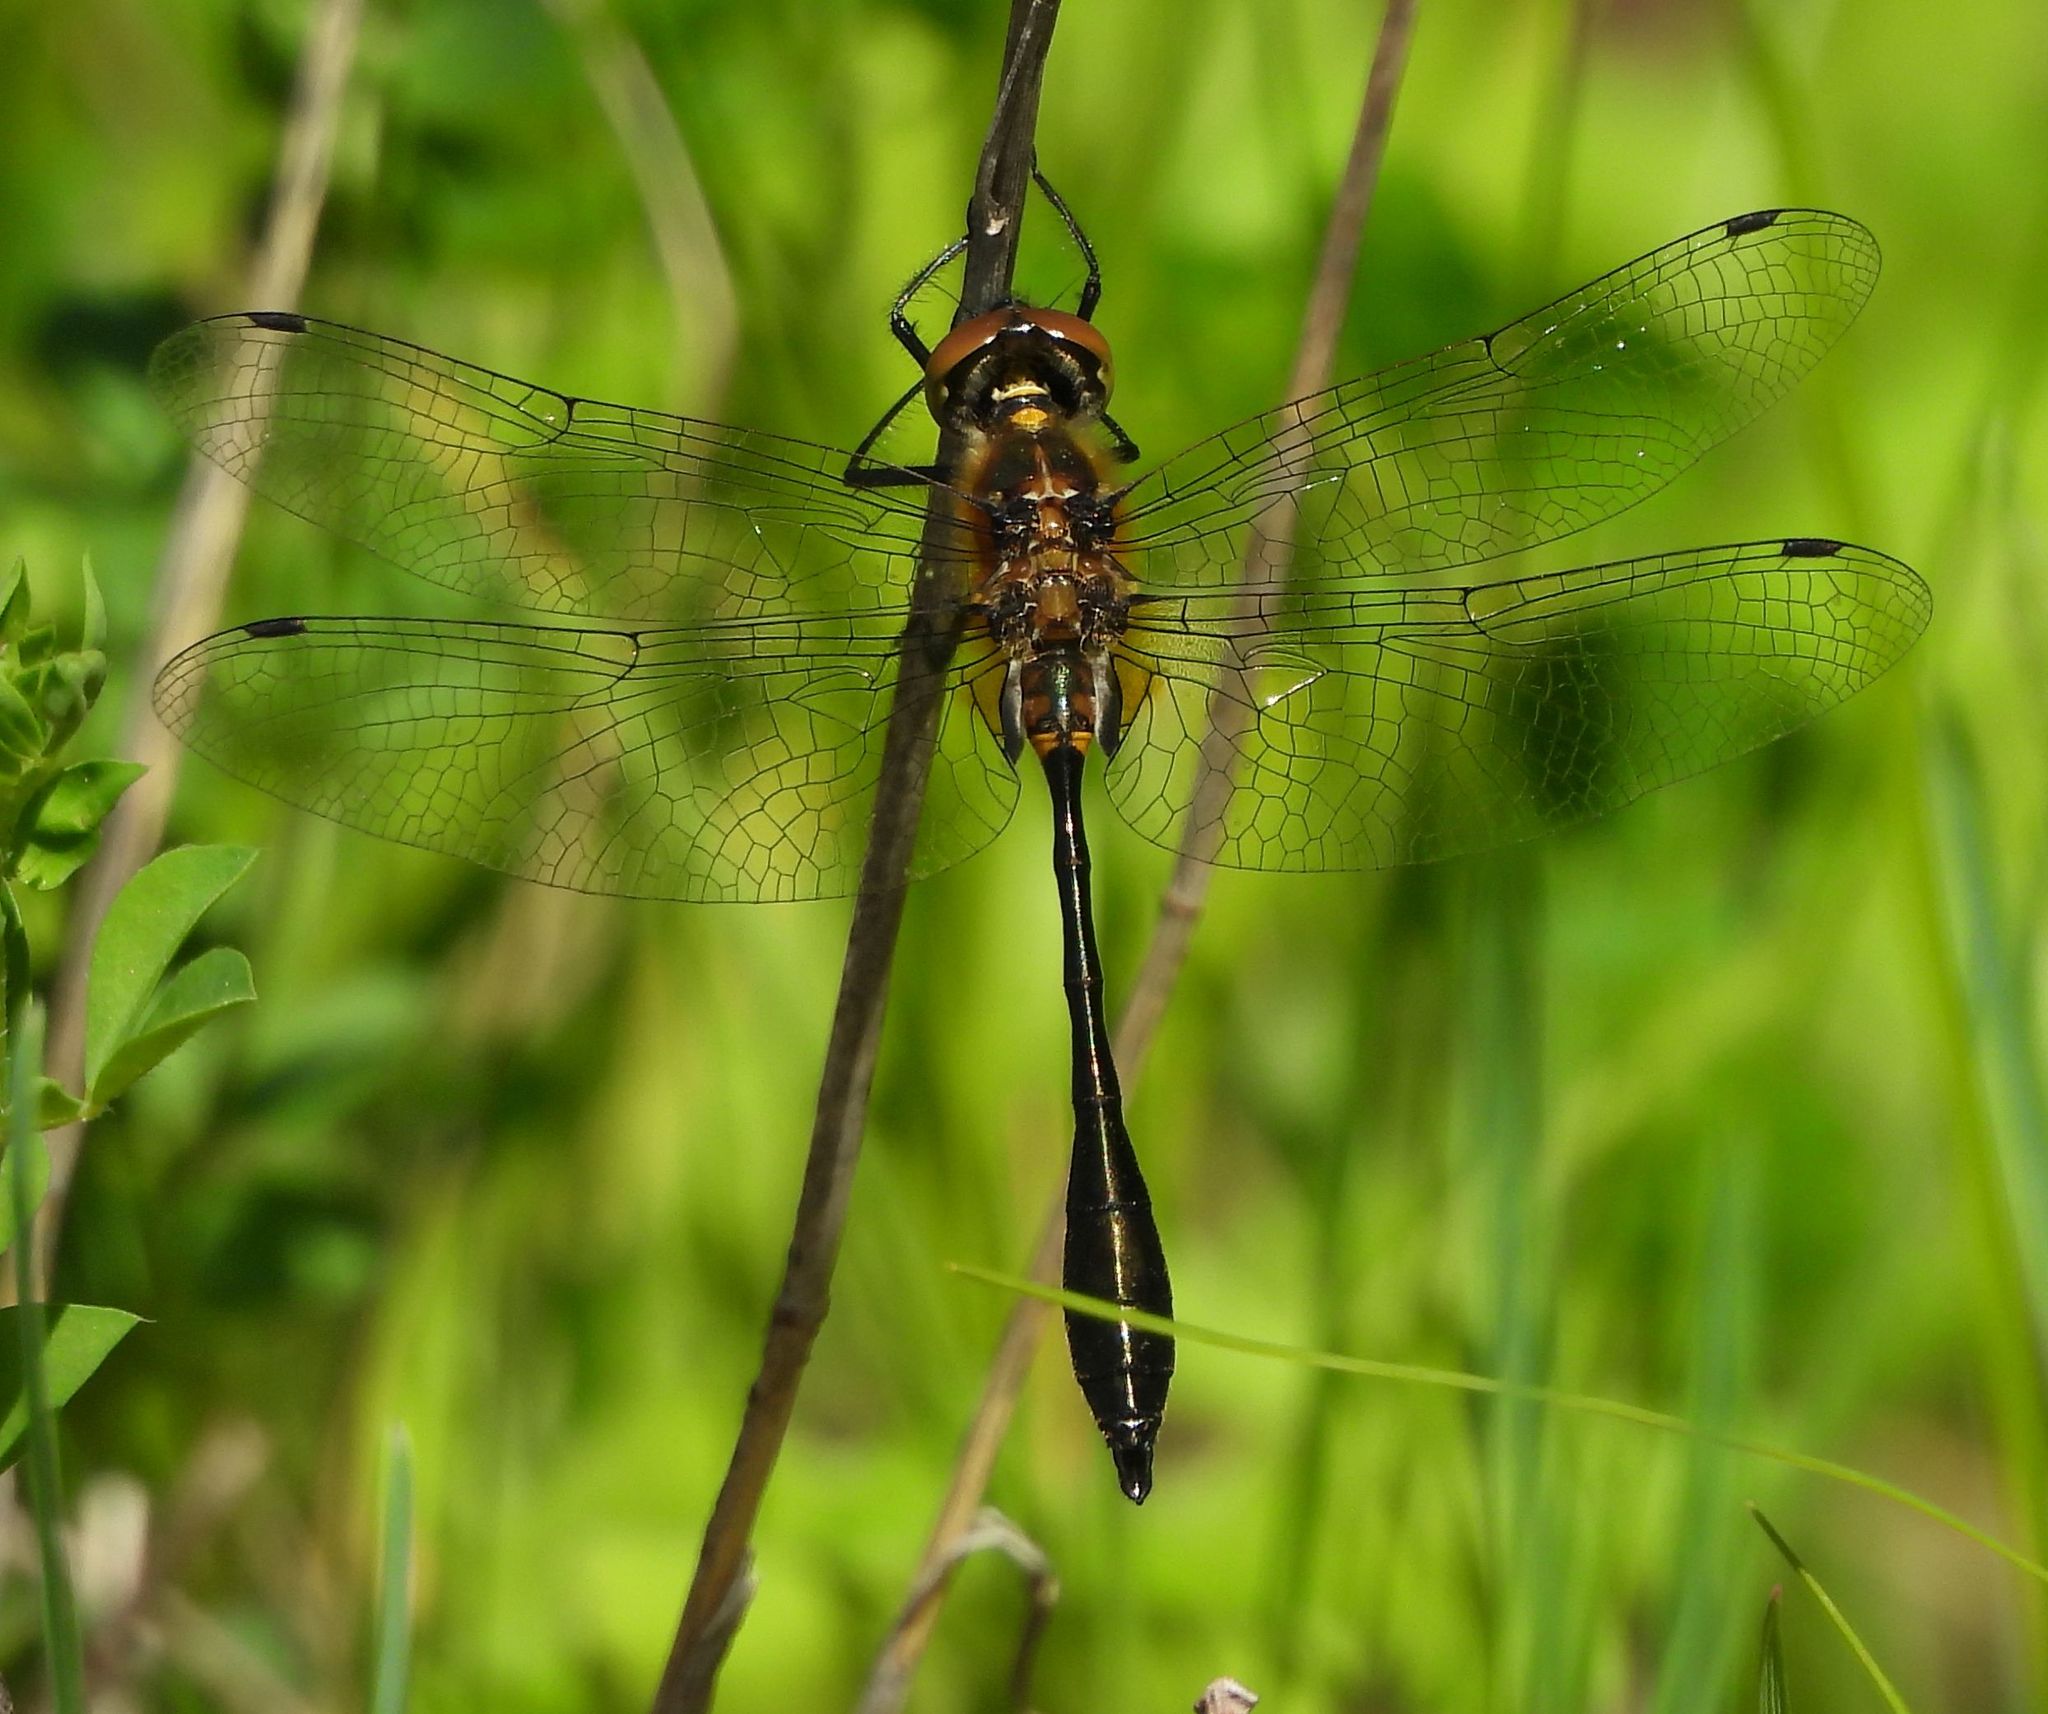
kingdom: Animalia
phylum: Arthropoda
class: Insecta
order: Odonata
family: Corduliidae
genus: Dorocordulia
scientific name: Dorocordulia libera
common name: Racket-tailed emerald
